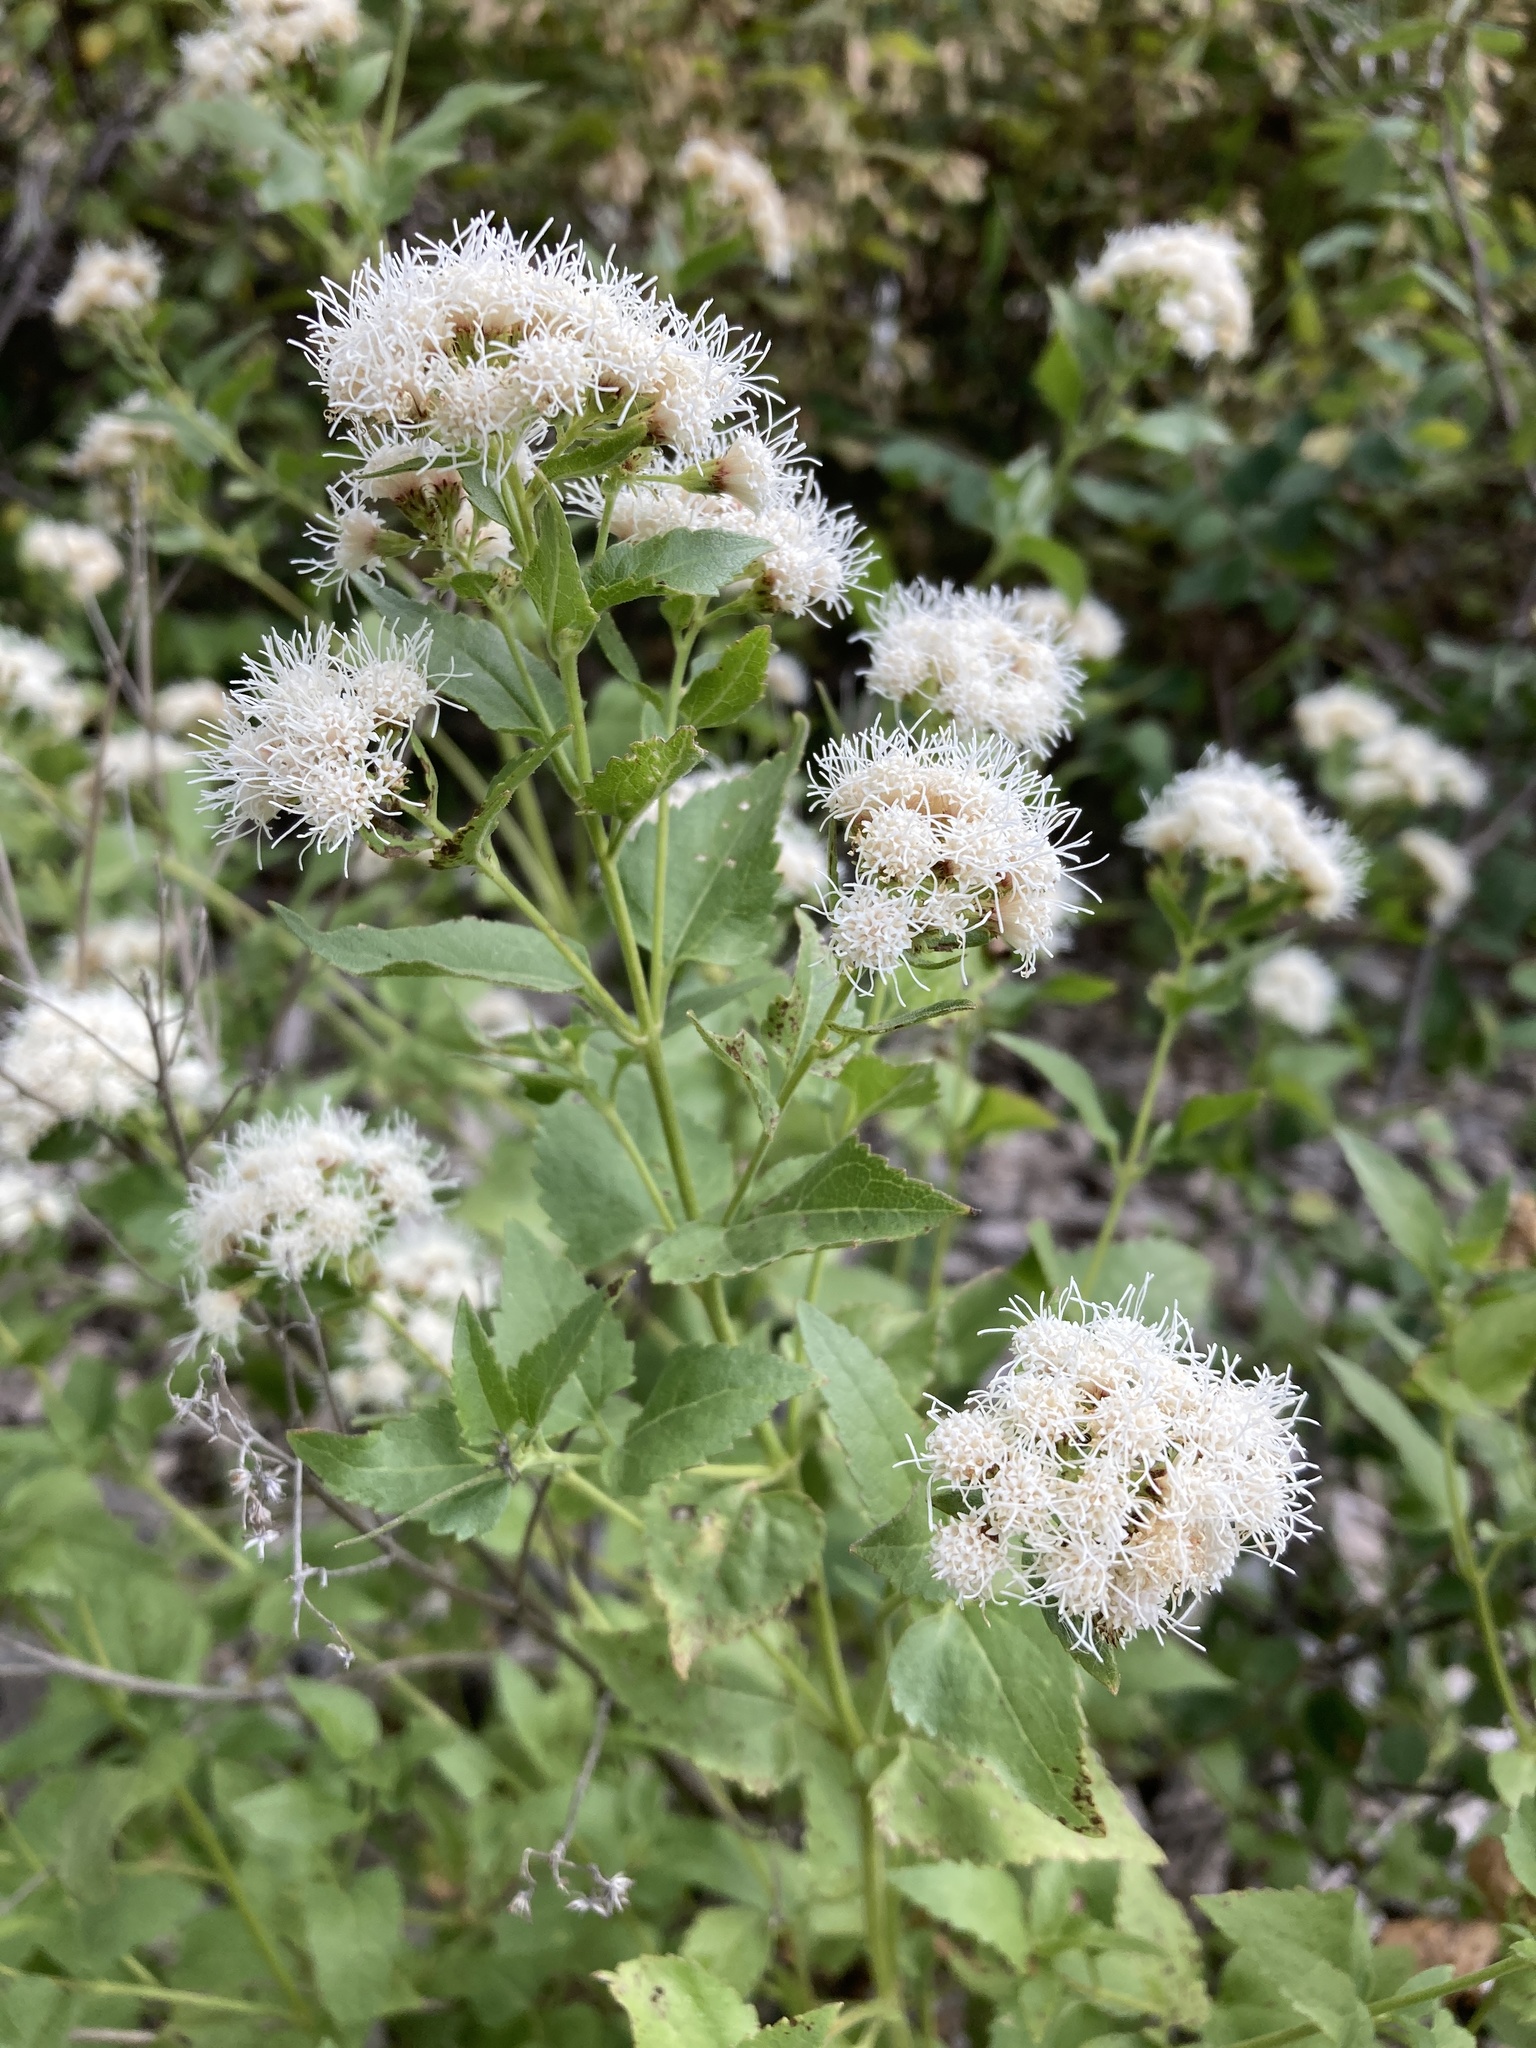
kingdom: Plantae
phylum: Tracheophyta
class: Magnoliopsida
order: Asterales
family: Asteraceae
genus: Ageratina
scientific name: Ageratina herbacea
